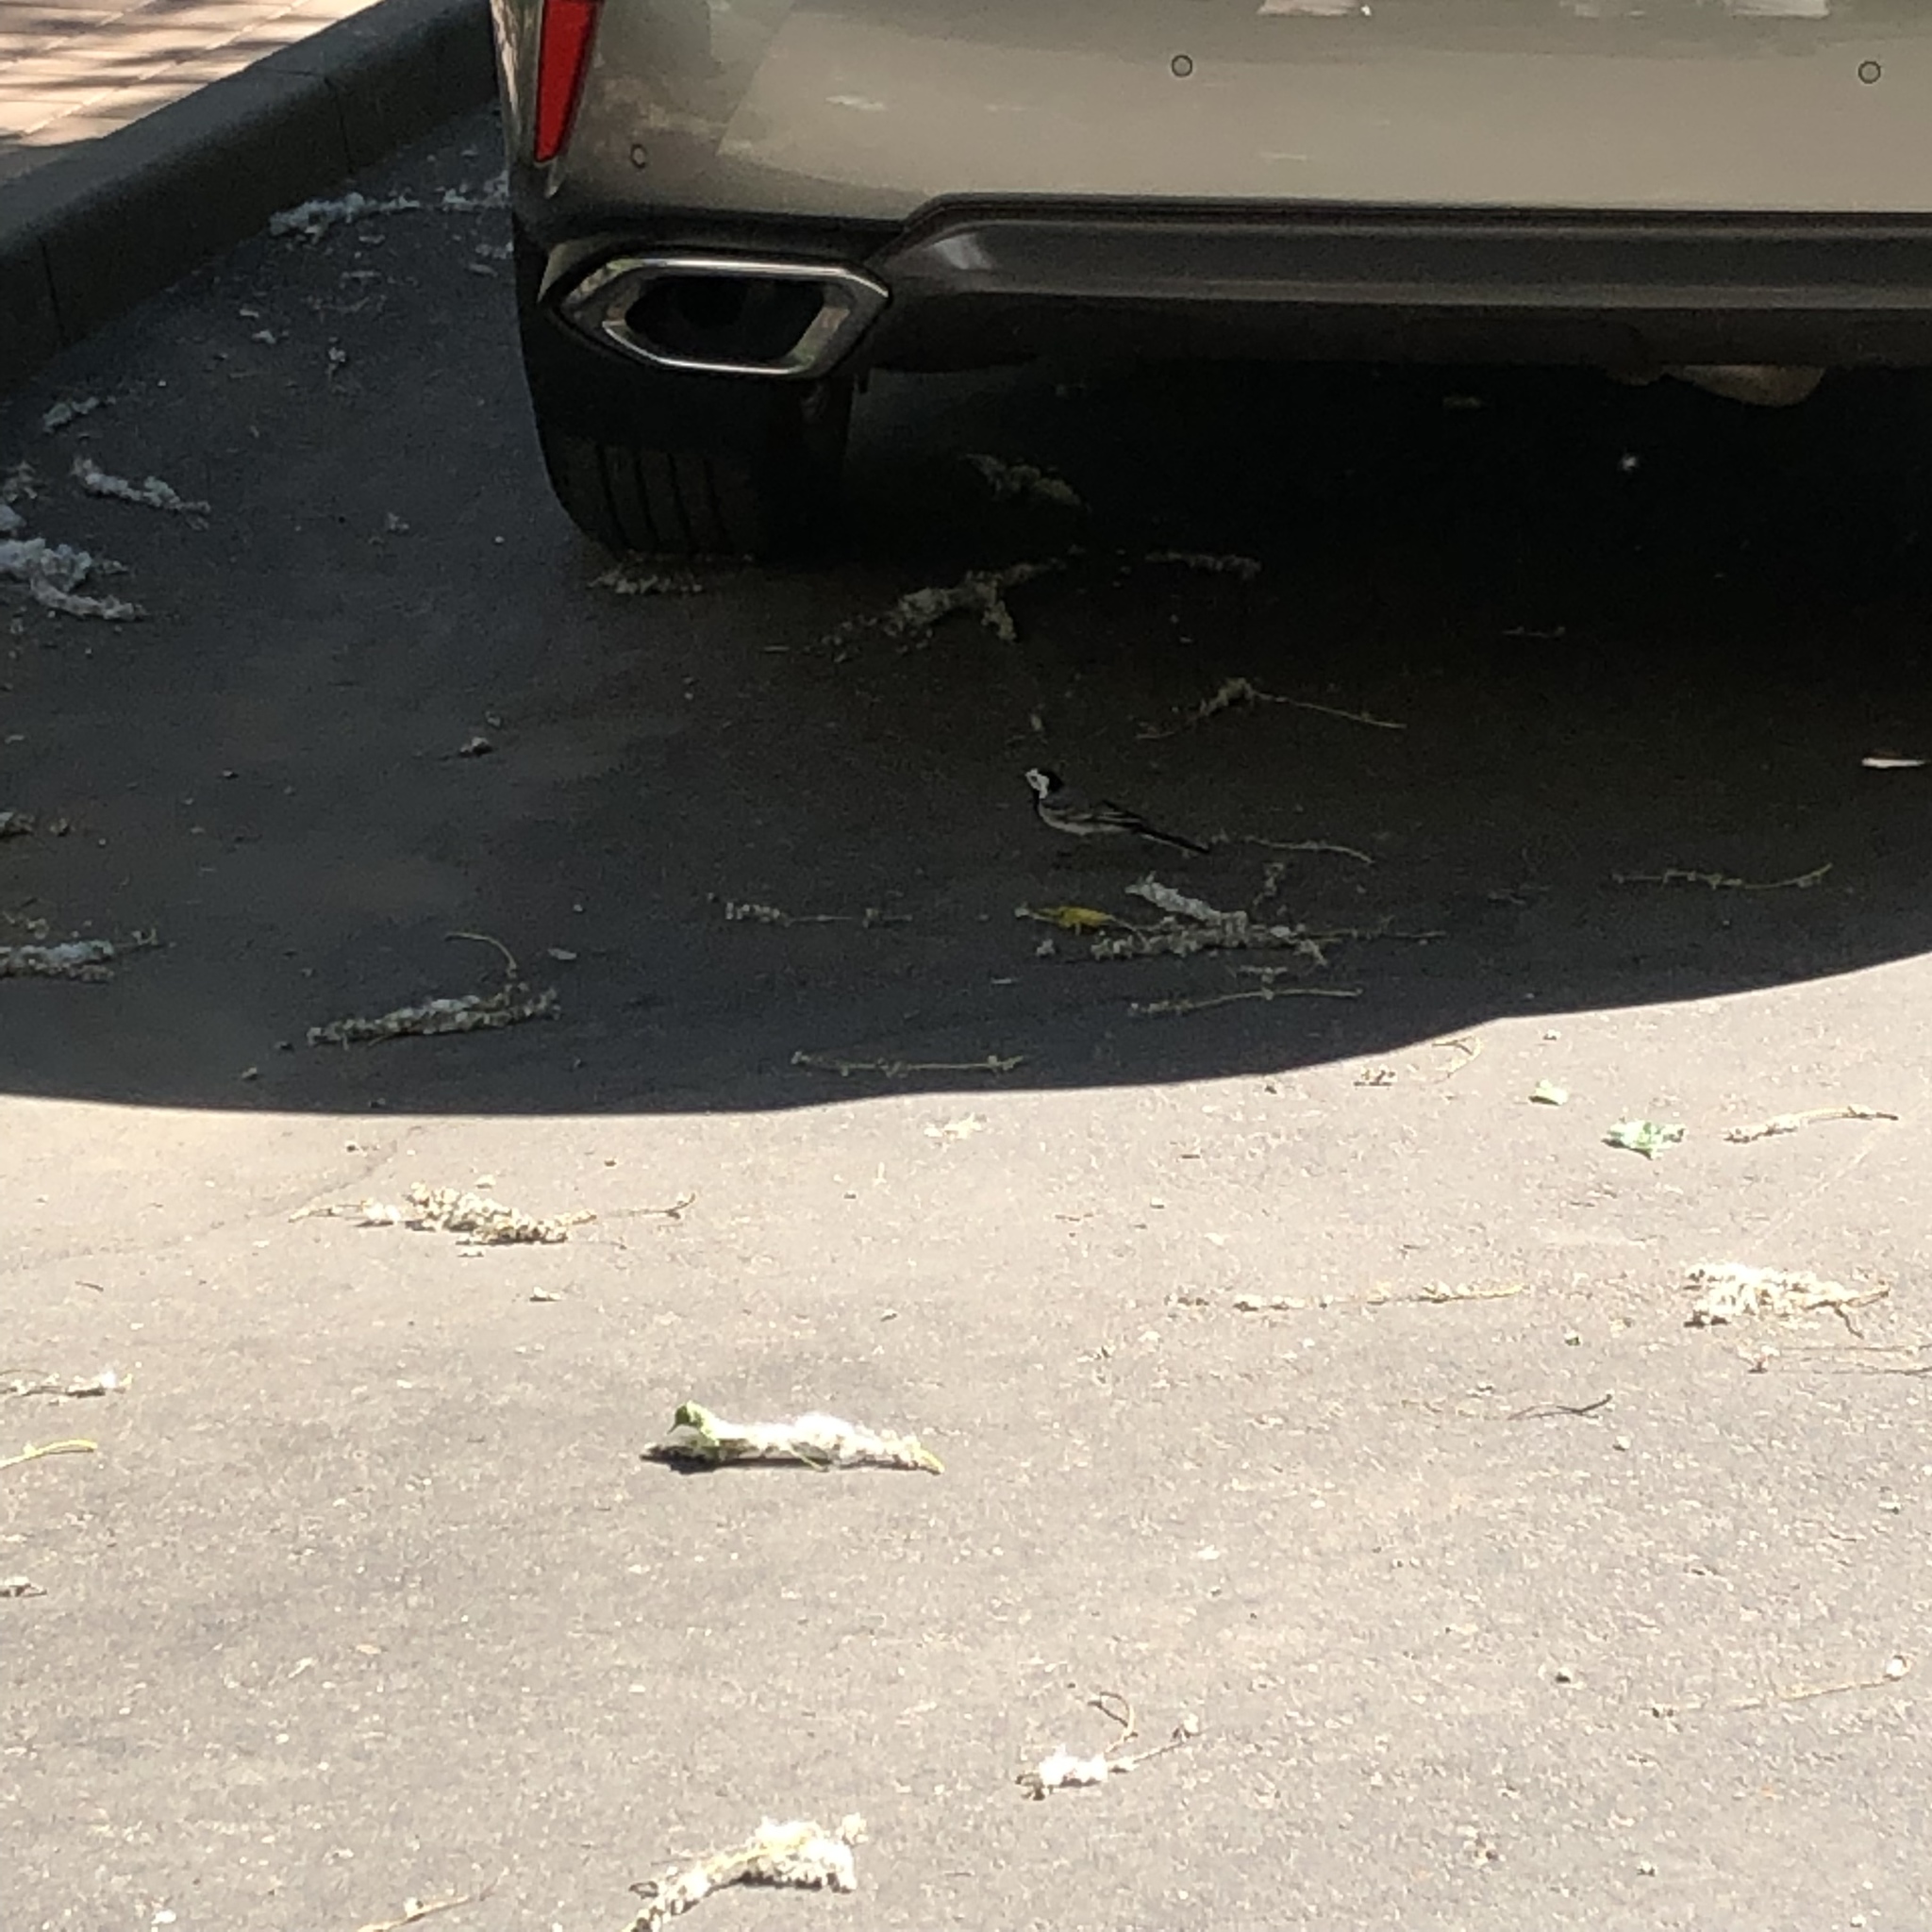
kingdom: Animalia
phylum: Chordata
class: Aves
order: Passeriformes
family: Motacillidae
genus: Motacilla
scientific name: Motacilla alba
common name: White wagtail
